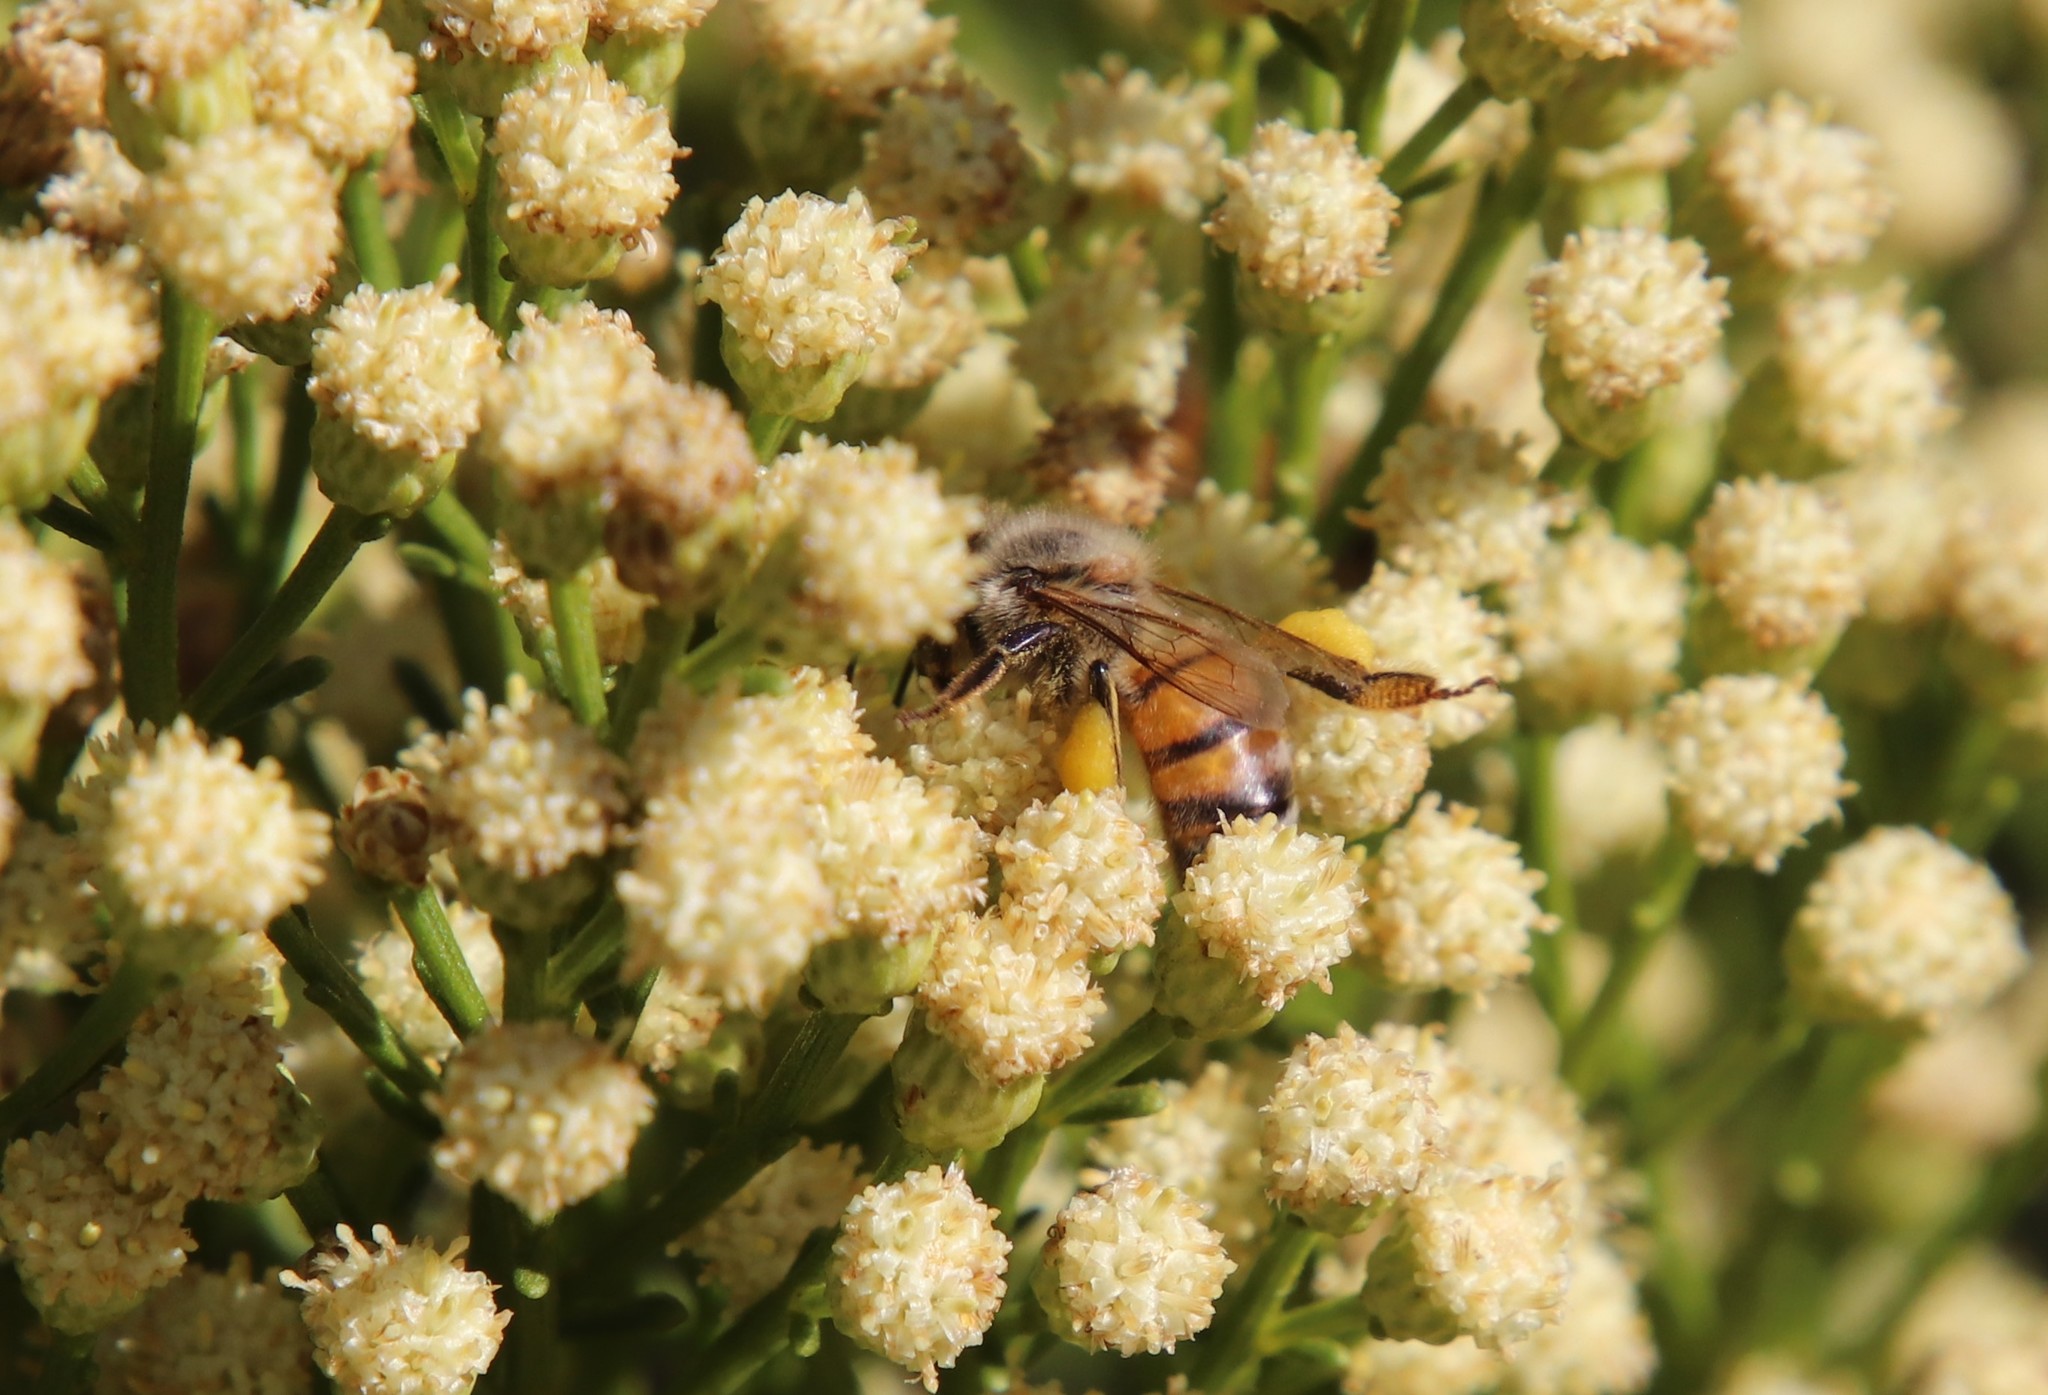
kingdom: Animalia
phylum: Arthropoda
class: Insecta
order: Hymenoptera
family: Apidae
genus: Apis
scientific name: Apis mellifera
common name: Honey bee
